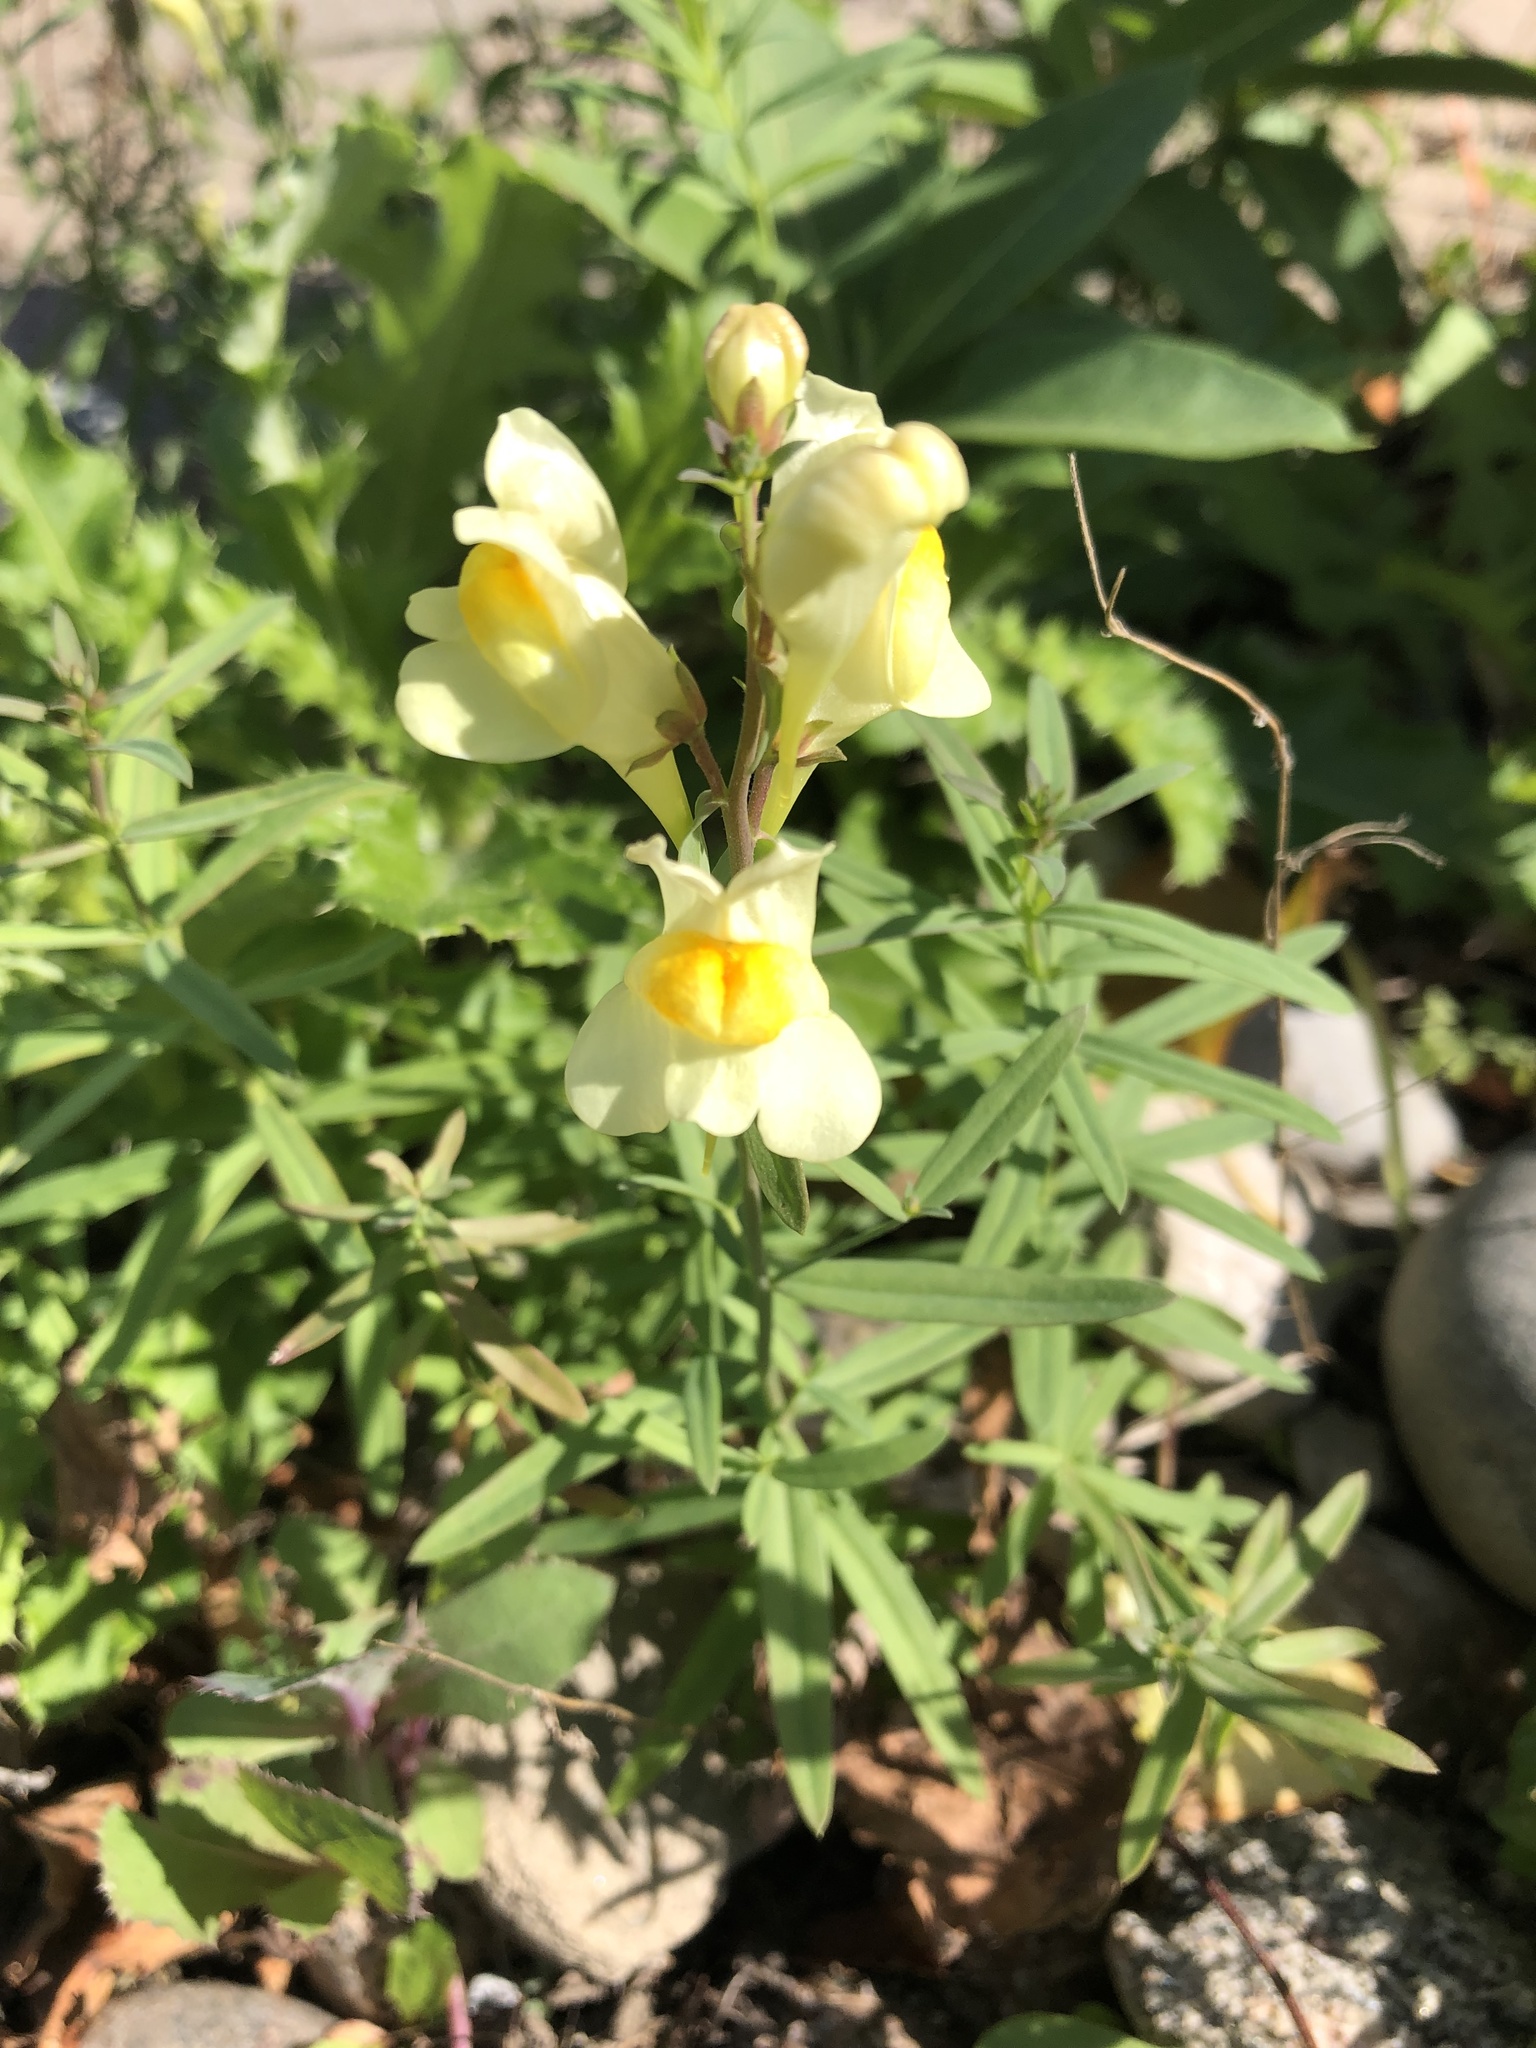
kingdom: Plantae
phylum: Tracheophyta
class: Magnoliopsida
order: Lamiales
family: Plantaginaceae
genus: Linaria
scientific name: Linaria vulgaris
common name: Butter and eggs
